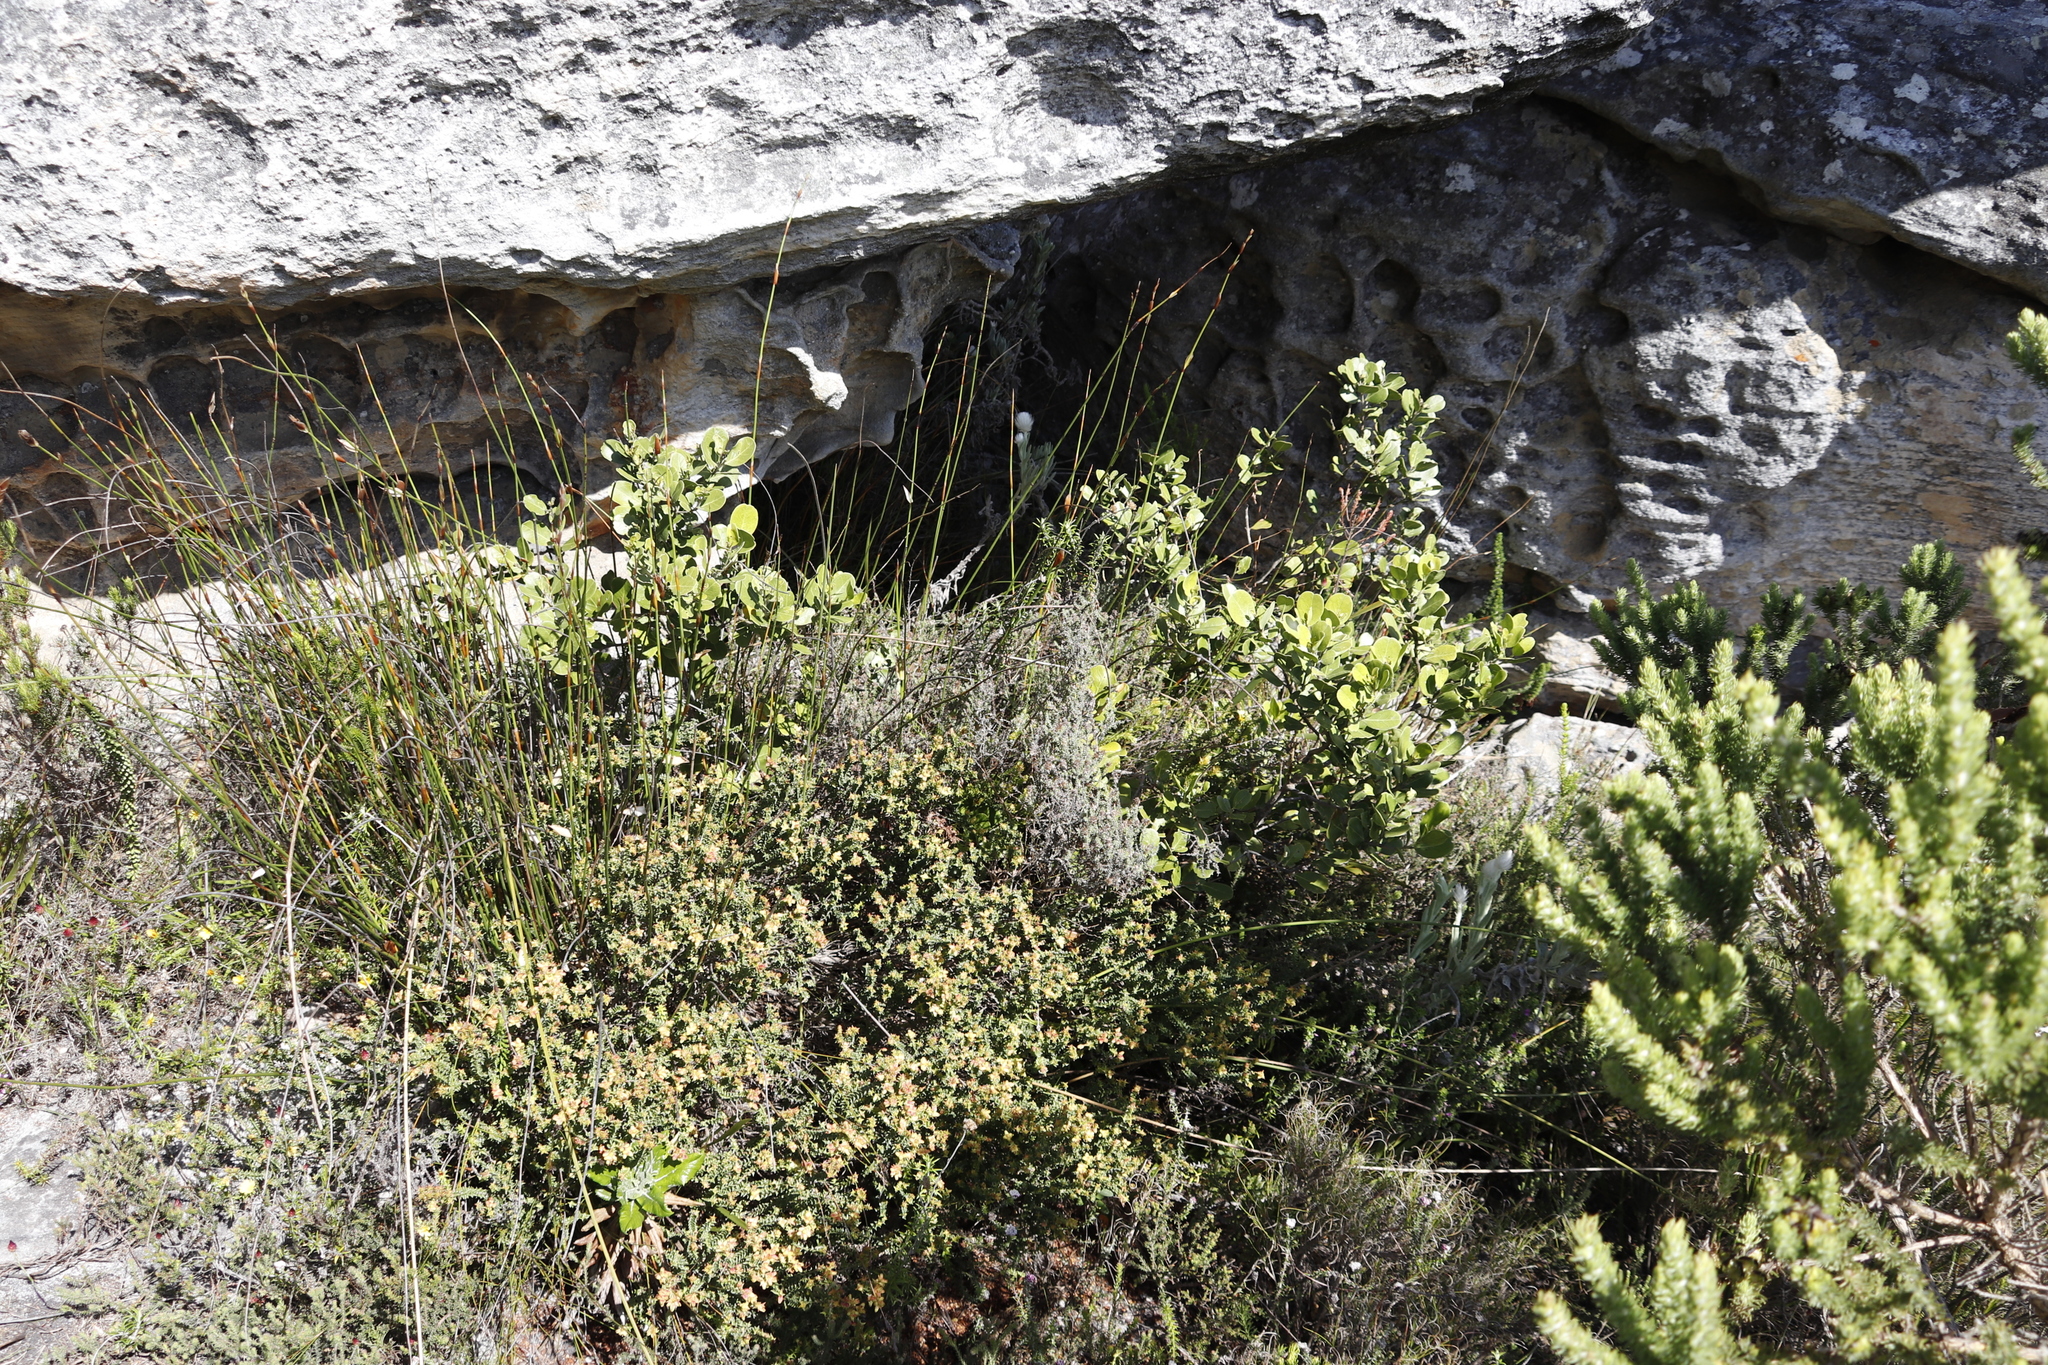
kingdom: Plantae
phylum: Tracheophyta
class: Magnoliopsida
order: Lamiales
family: Oleaceae
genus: Olea
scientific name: Olea capensis
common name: Black ironwood
